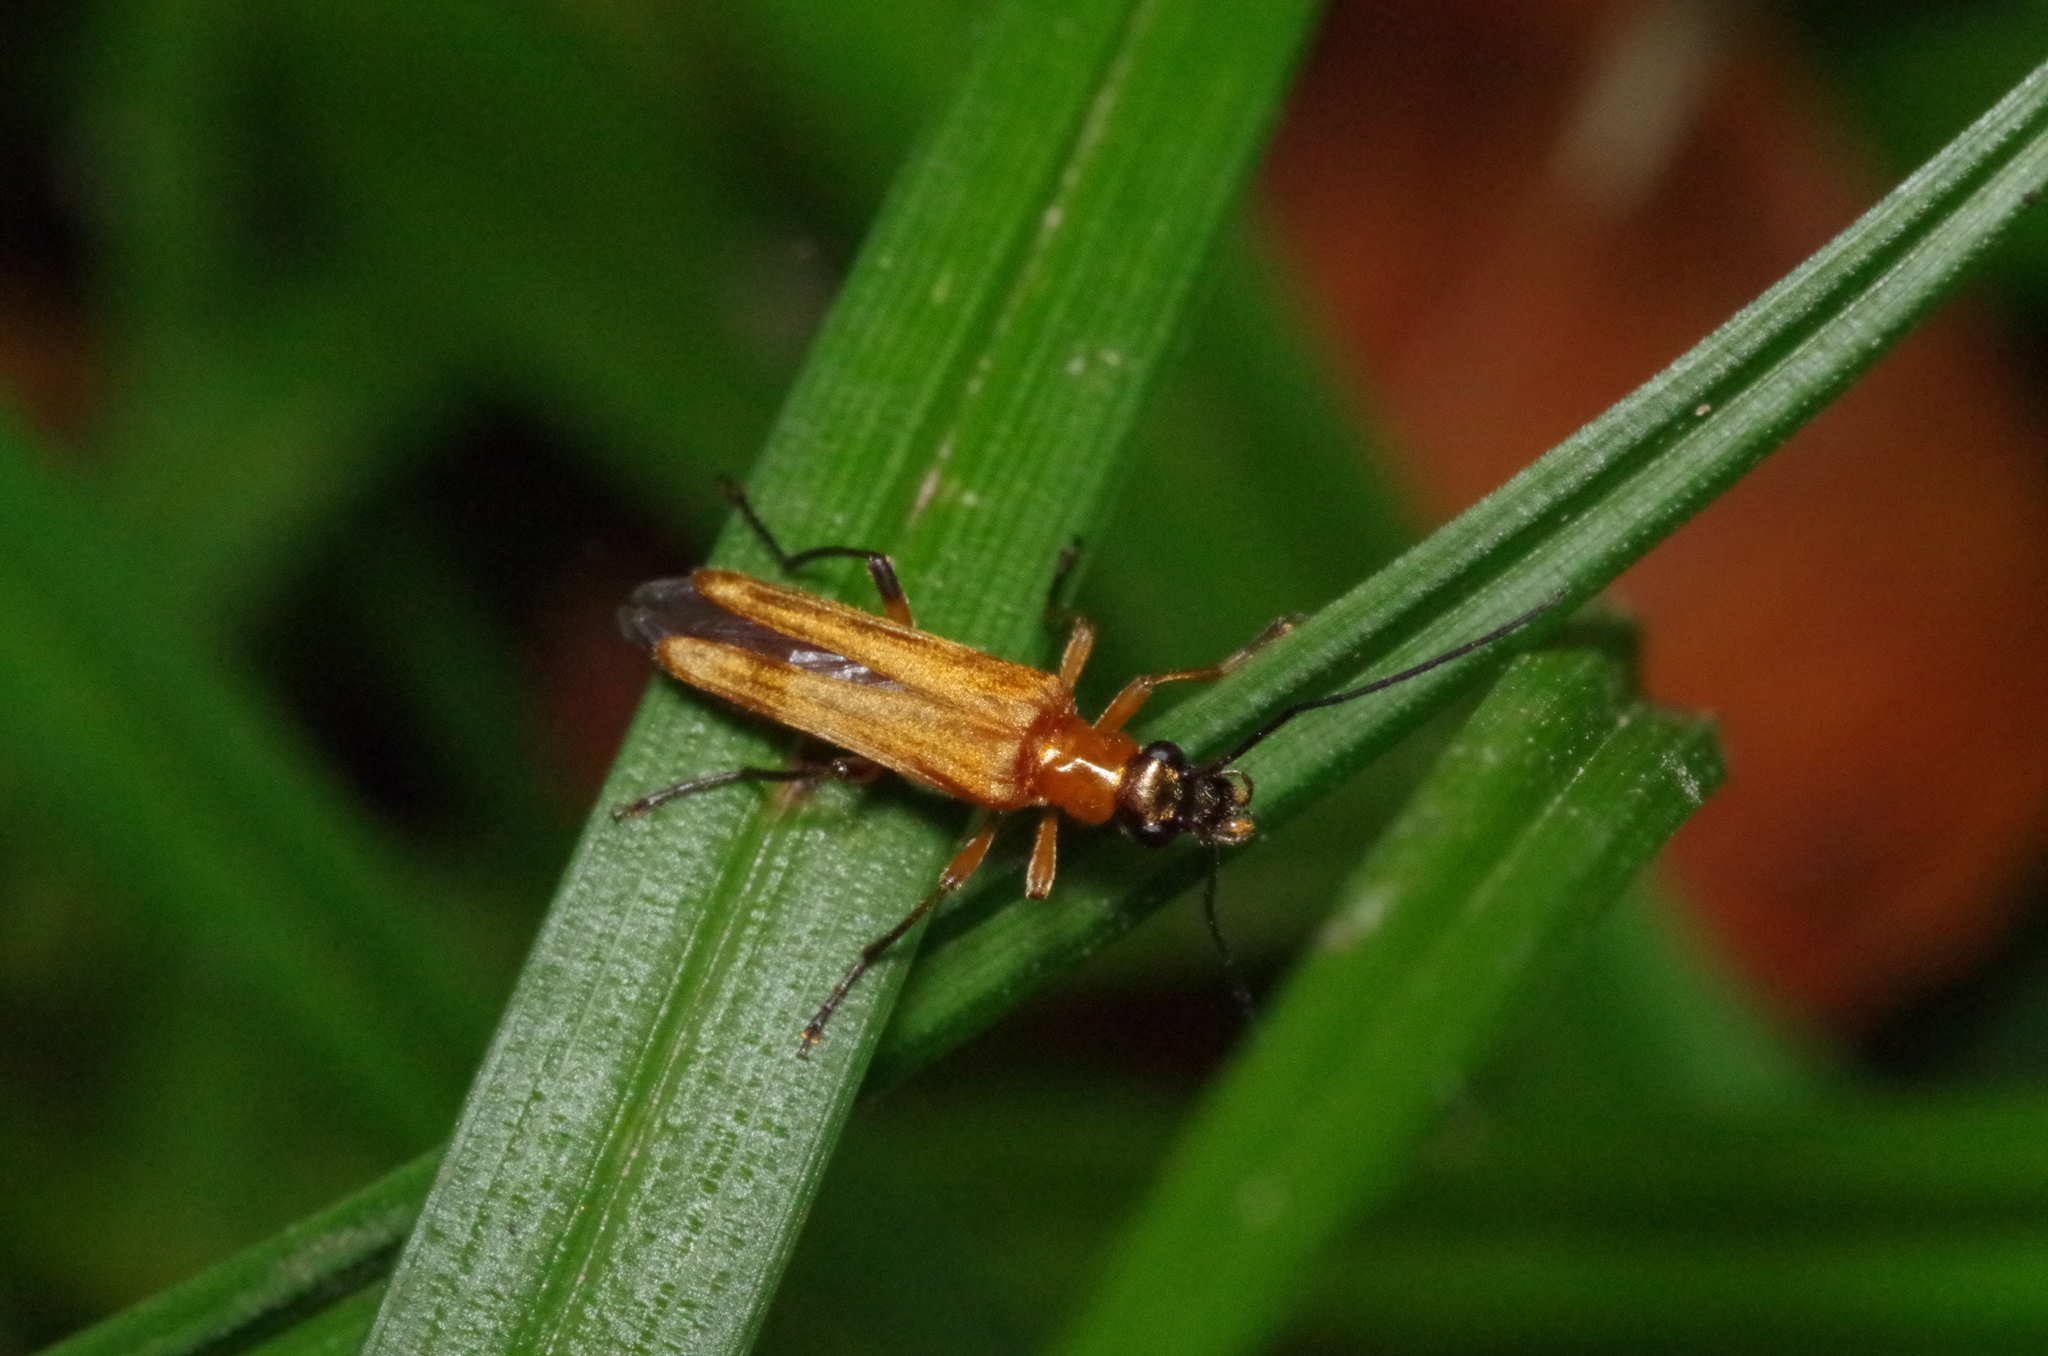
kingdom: Animalia
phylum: Arthropoda
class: Insecta
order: Coleoptera
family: Oedemeridae
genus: Oedemera
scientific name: Oedemera podagrariae
